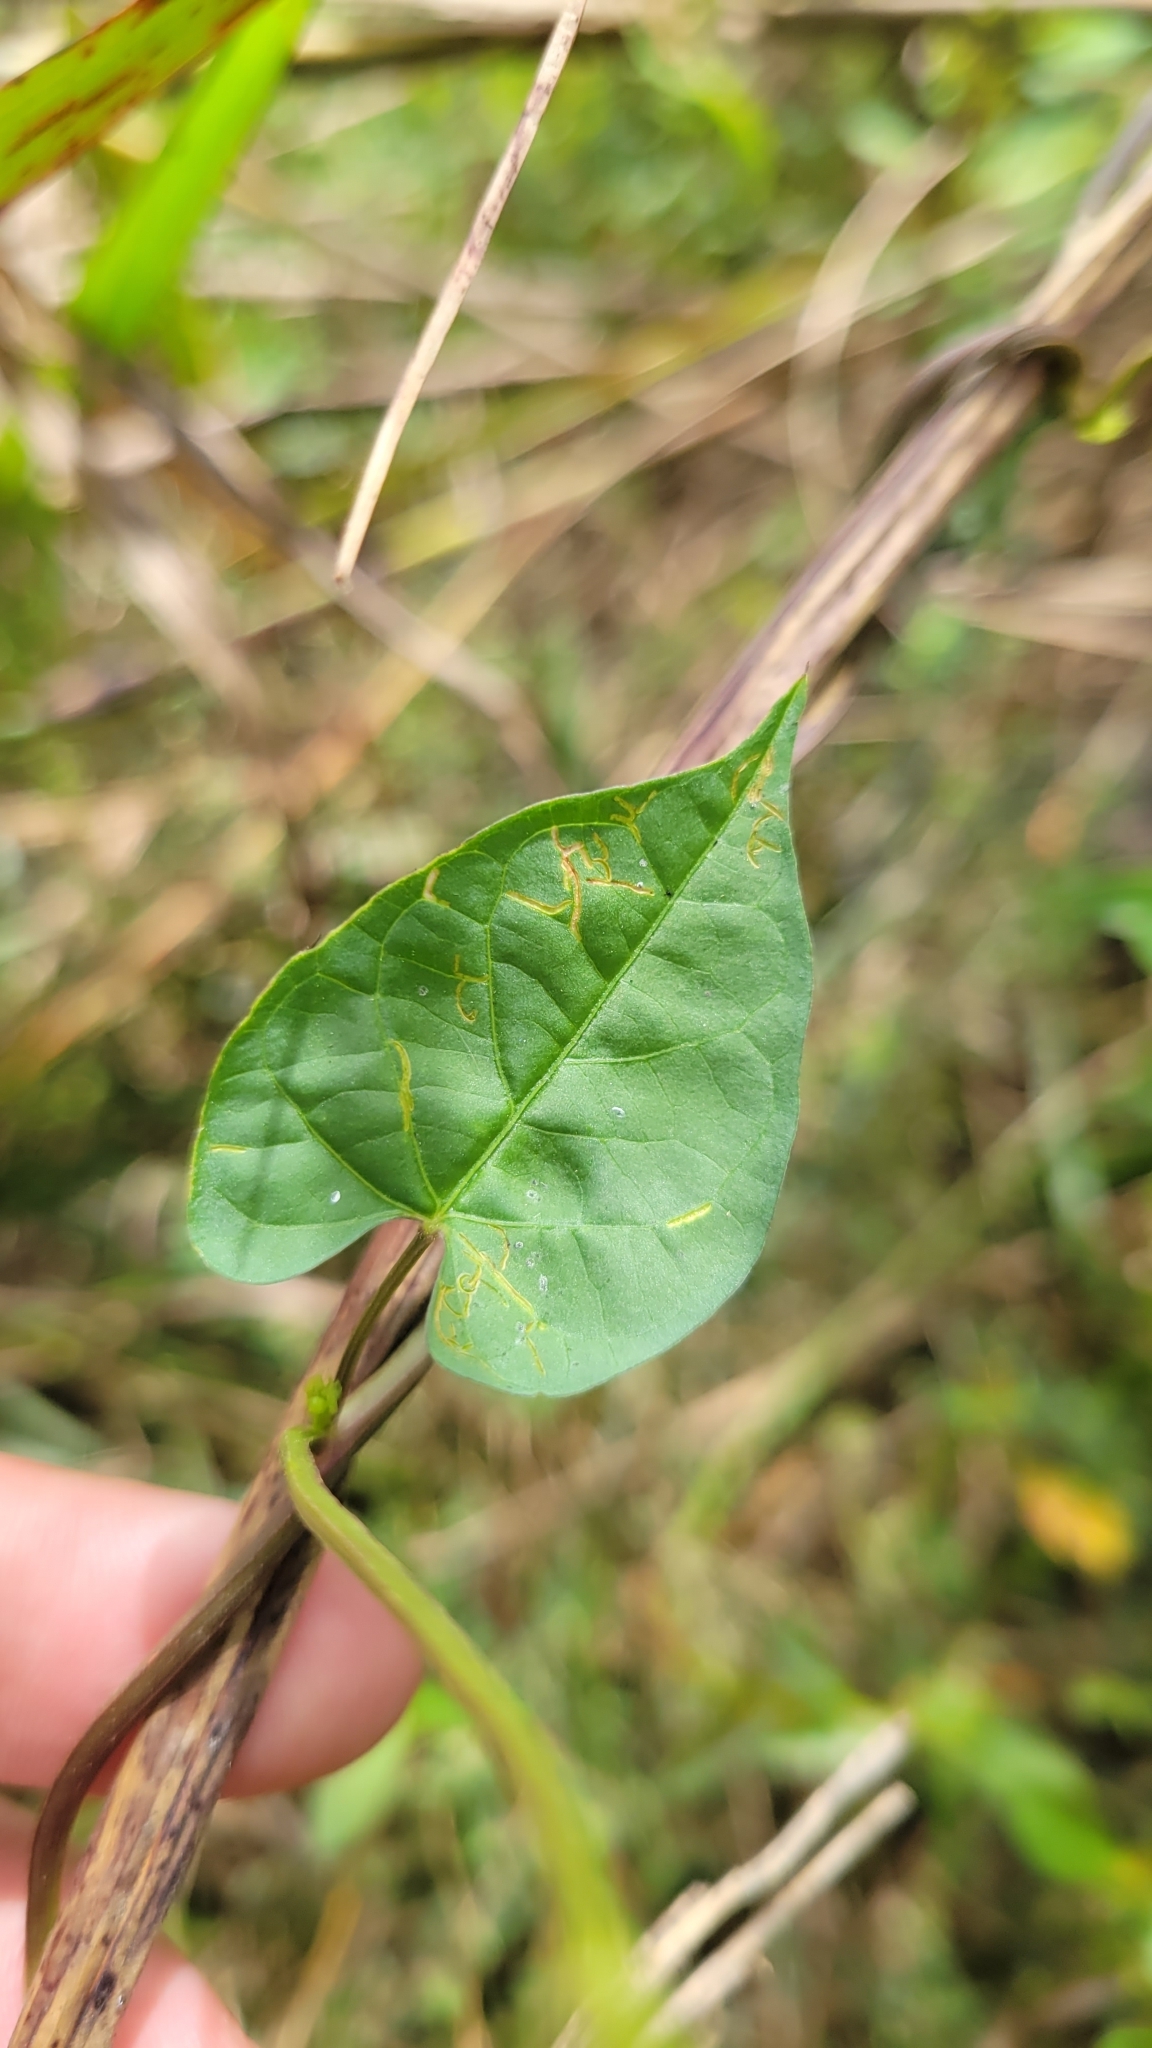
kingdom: Plantae
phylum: Tracheophyta
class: Magnoliopsida
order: Solanales
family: Convolvulaceae
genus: Ipomoea
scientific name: Ipomoea coccinea
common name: Red morning-glory
